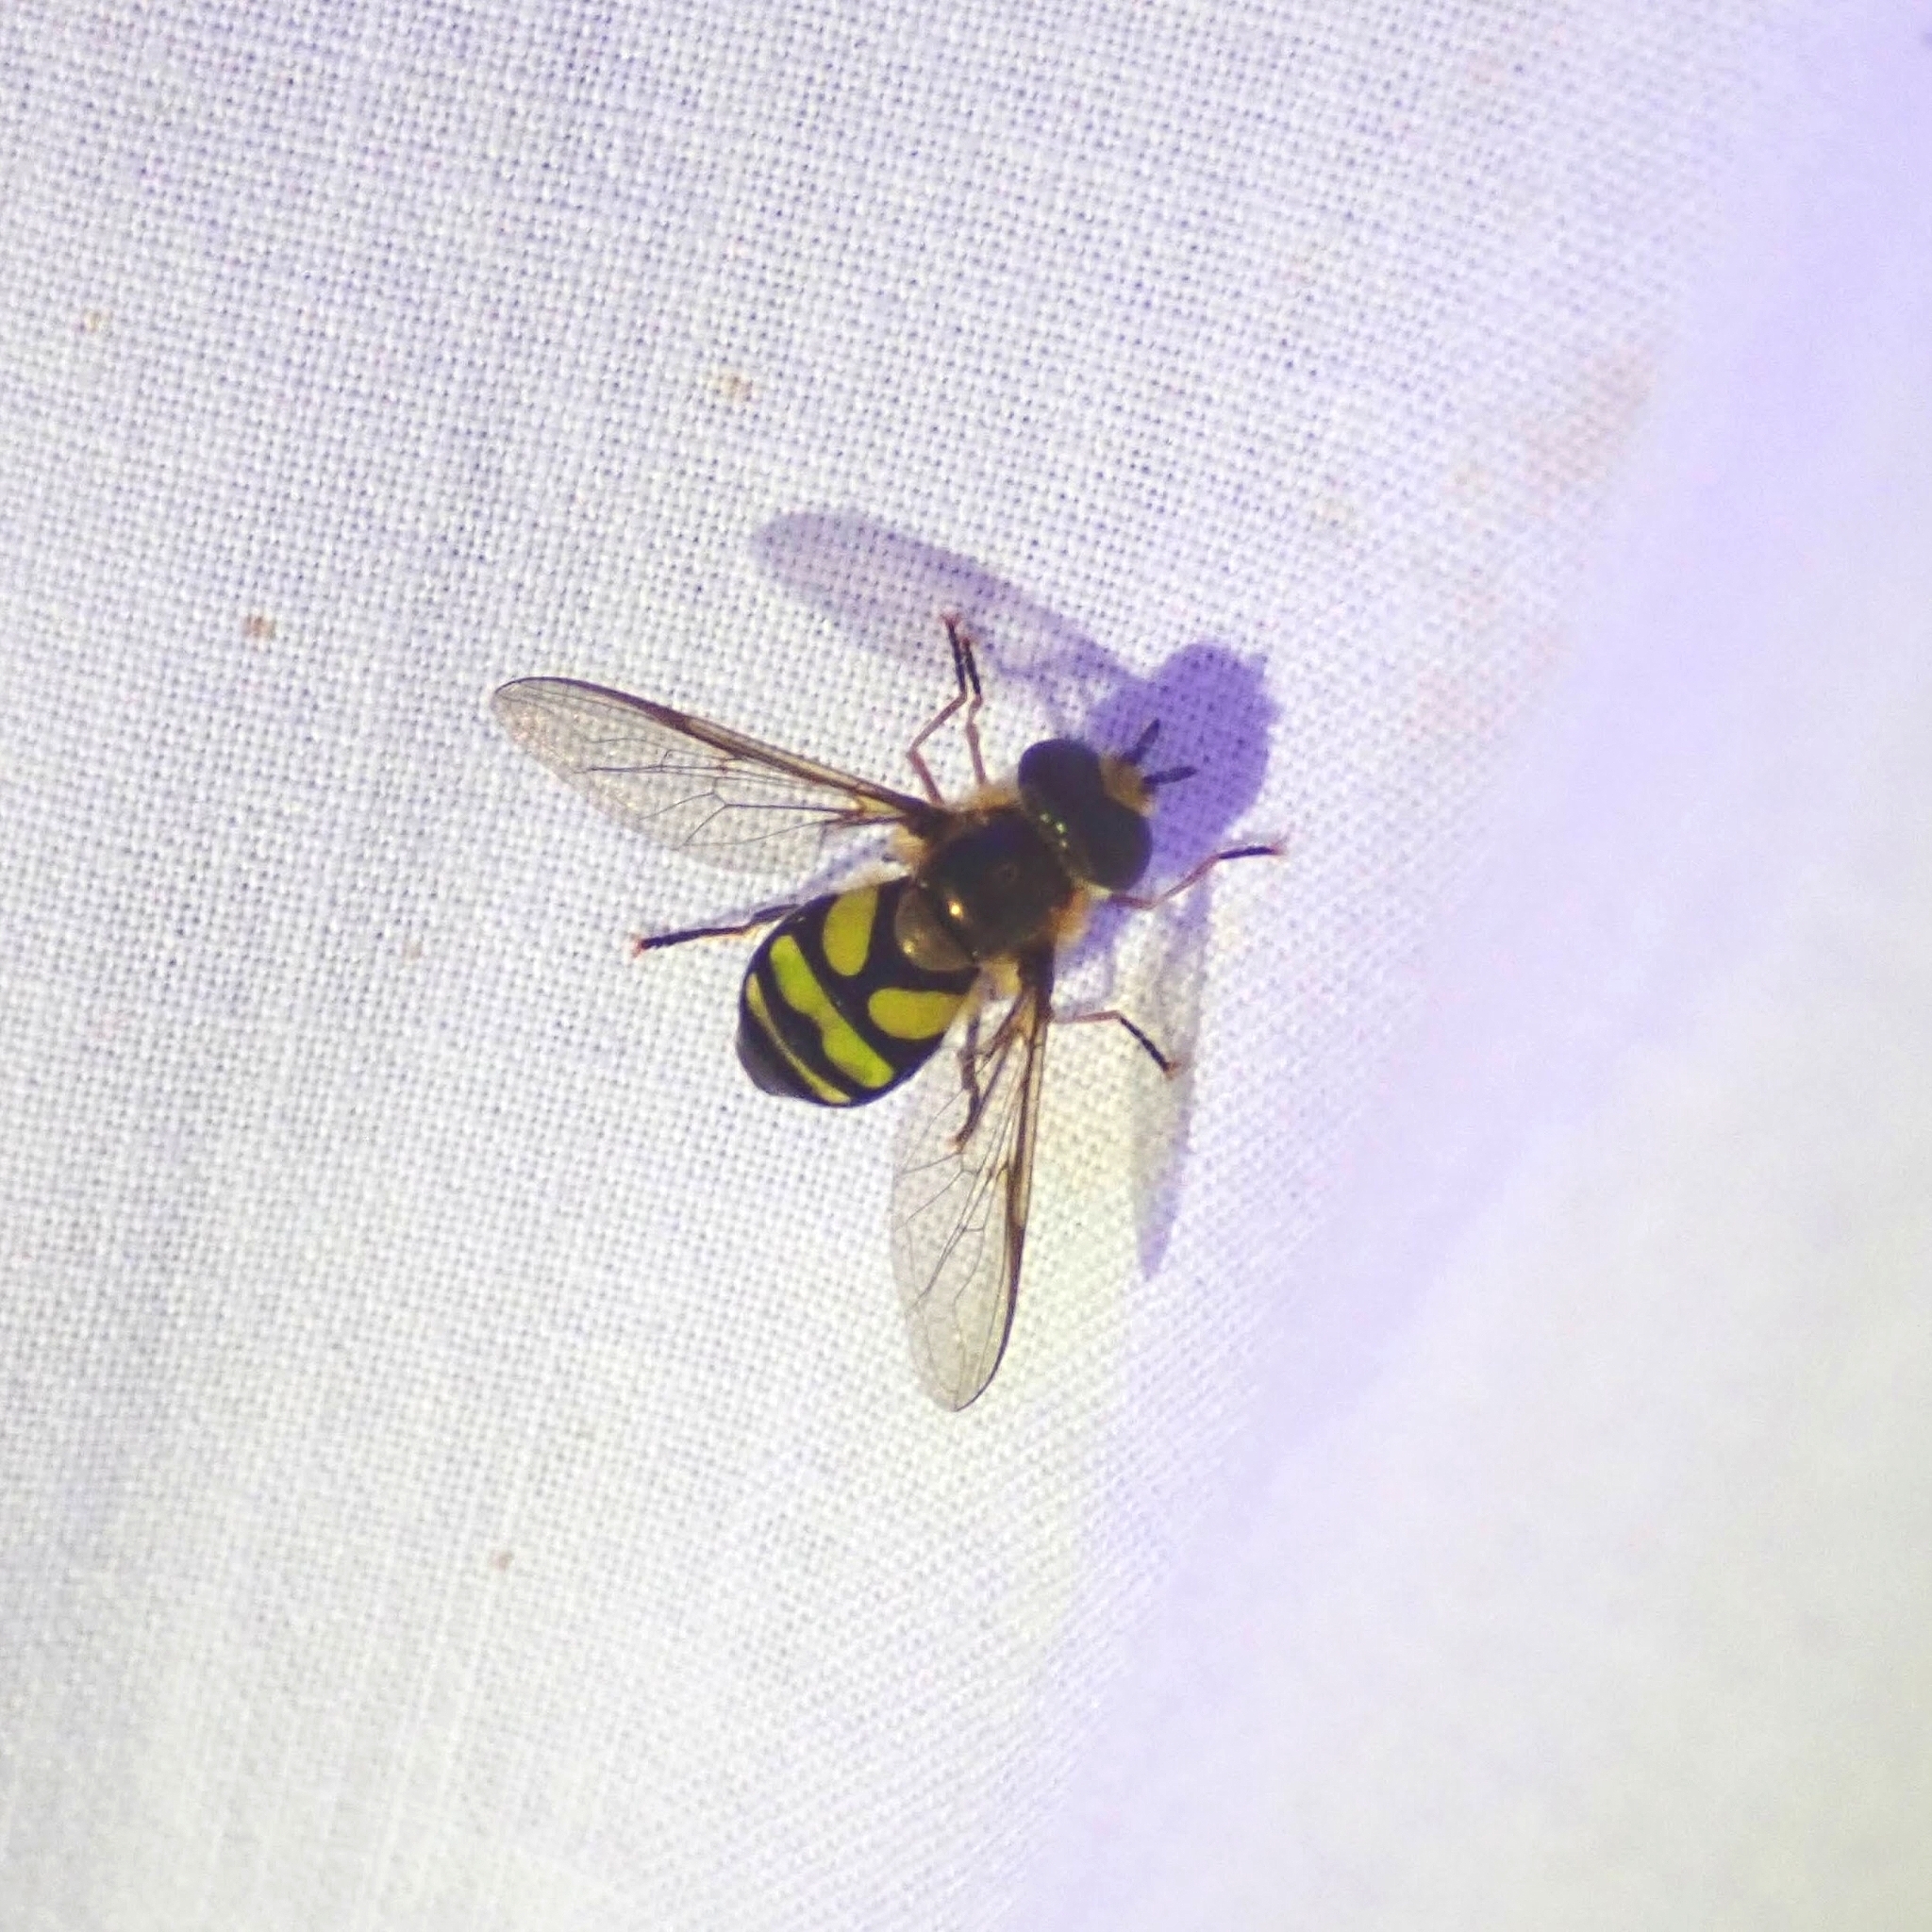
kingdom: Animalia
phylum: Arthropoda
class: Insecta
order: Diptera
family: Syrphidae
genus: Didea
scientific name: Didea fuscipes
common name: Undivided lucent
